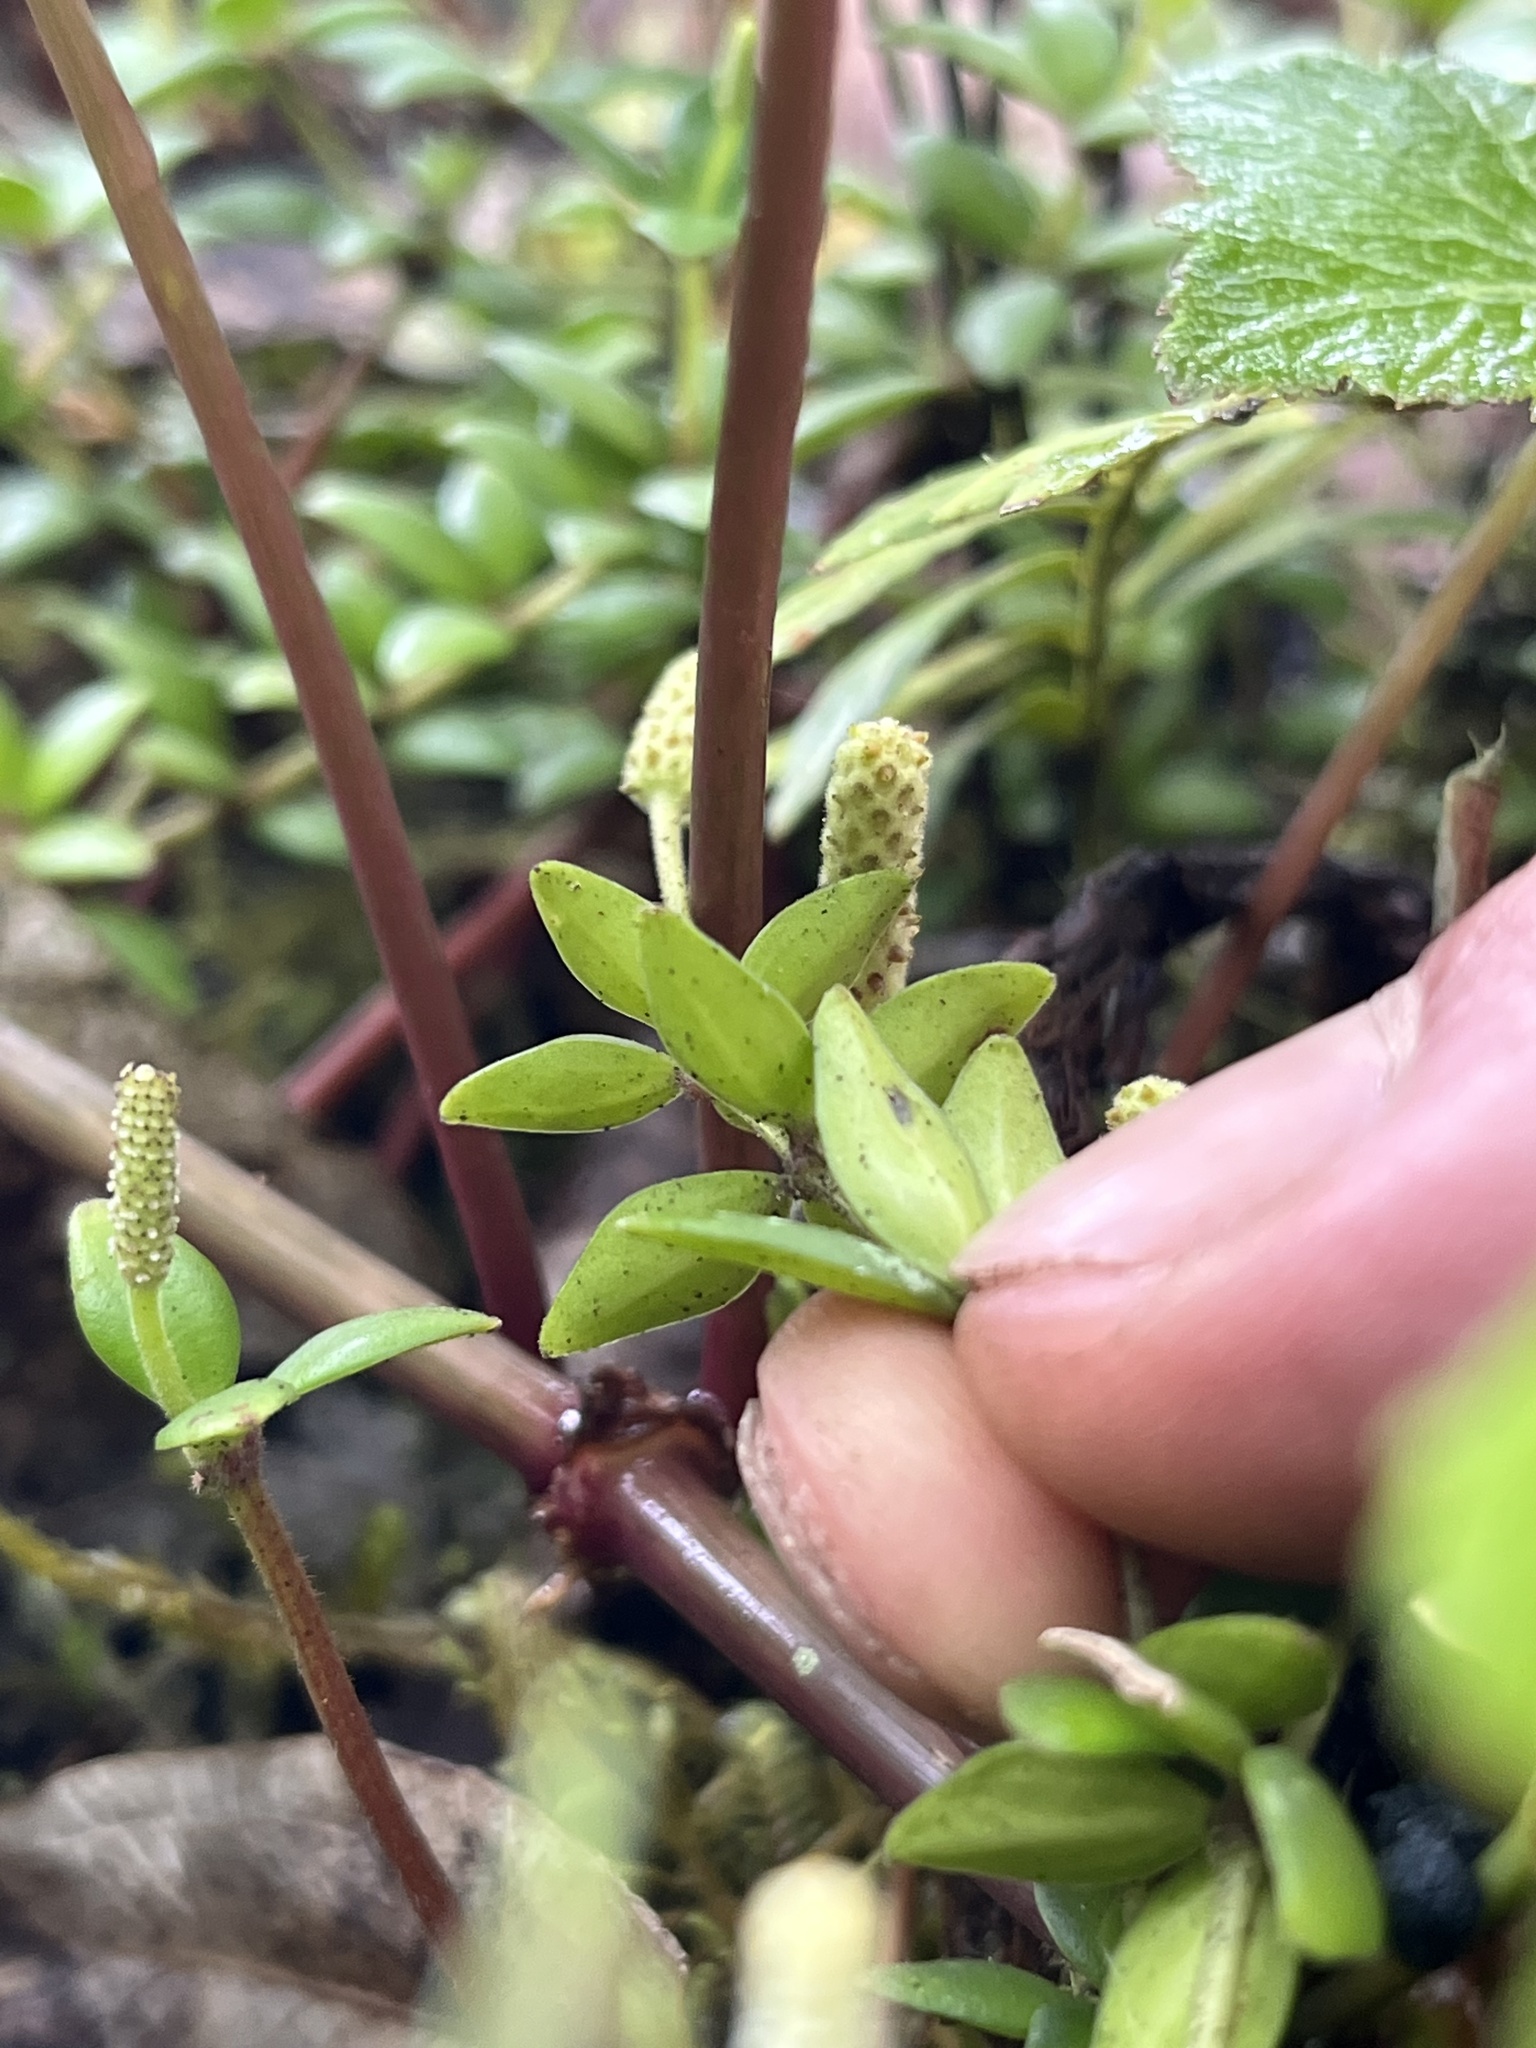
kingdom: Plantae
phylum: Tracheophyta
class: Magnoliopsida
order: Piperales
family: Piperaceae
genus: Peperomia
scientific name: Peperomia tetraphylla
